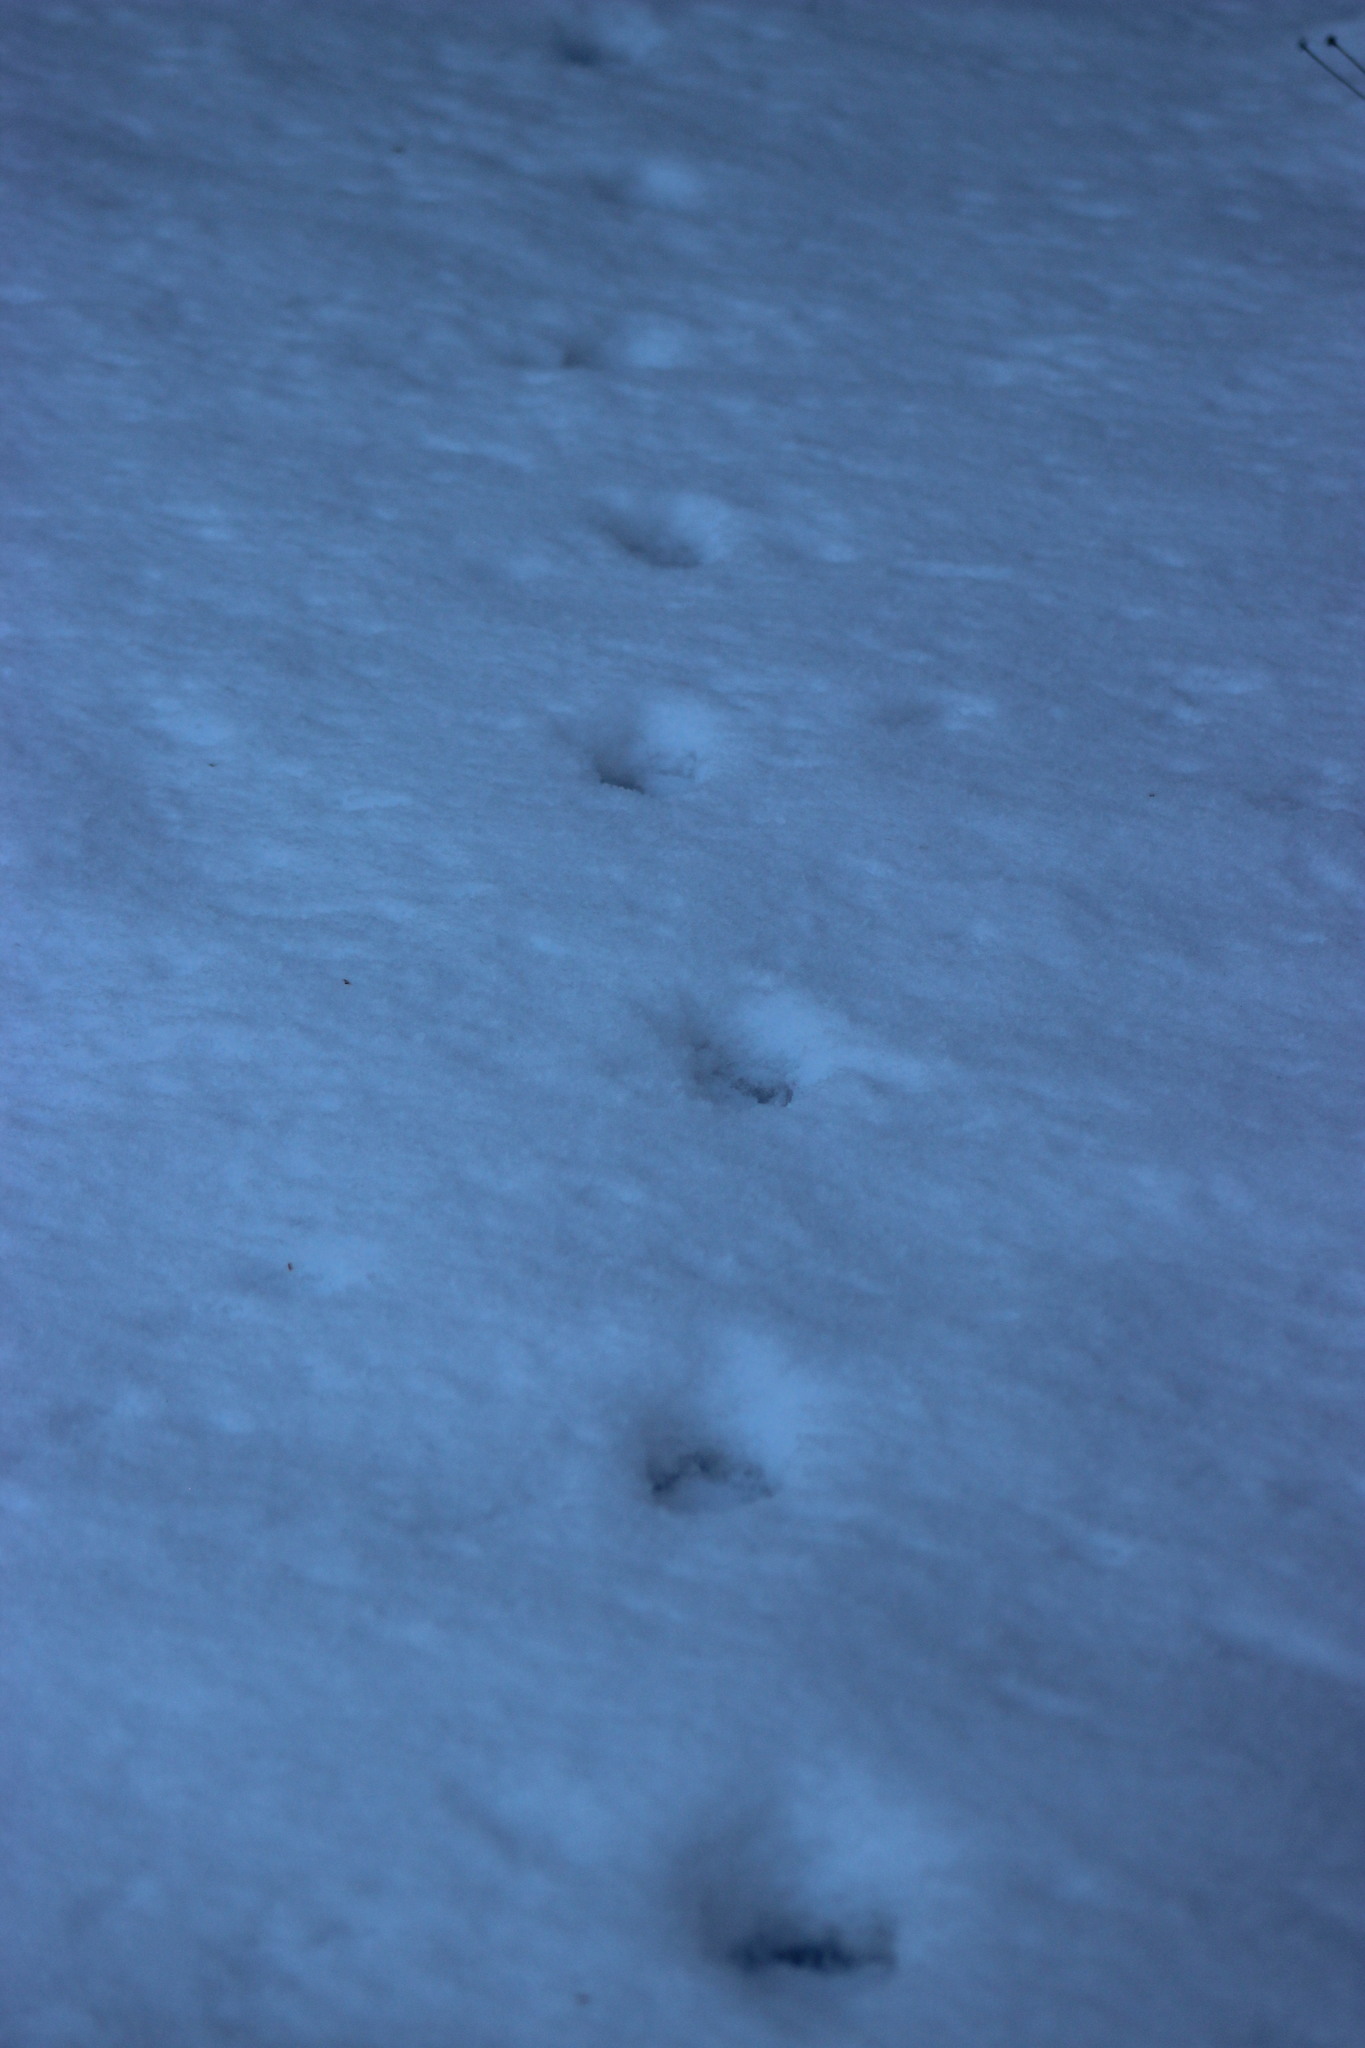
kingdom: Animalia
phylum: Chordata
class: Mammalia
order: Carnivora
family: Canidae
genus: Vulpes
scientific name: Vulpes vulpes
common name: Red fox
